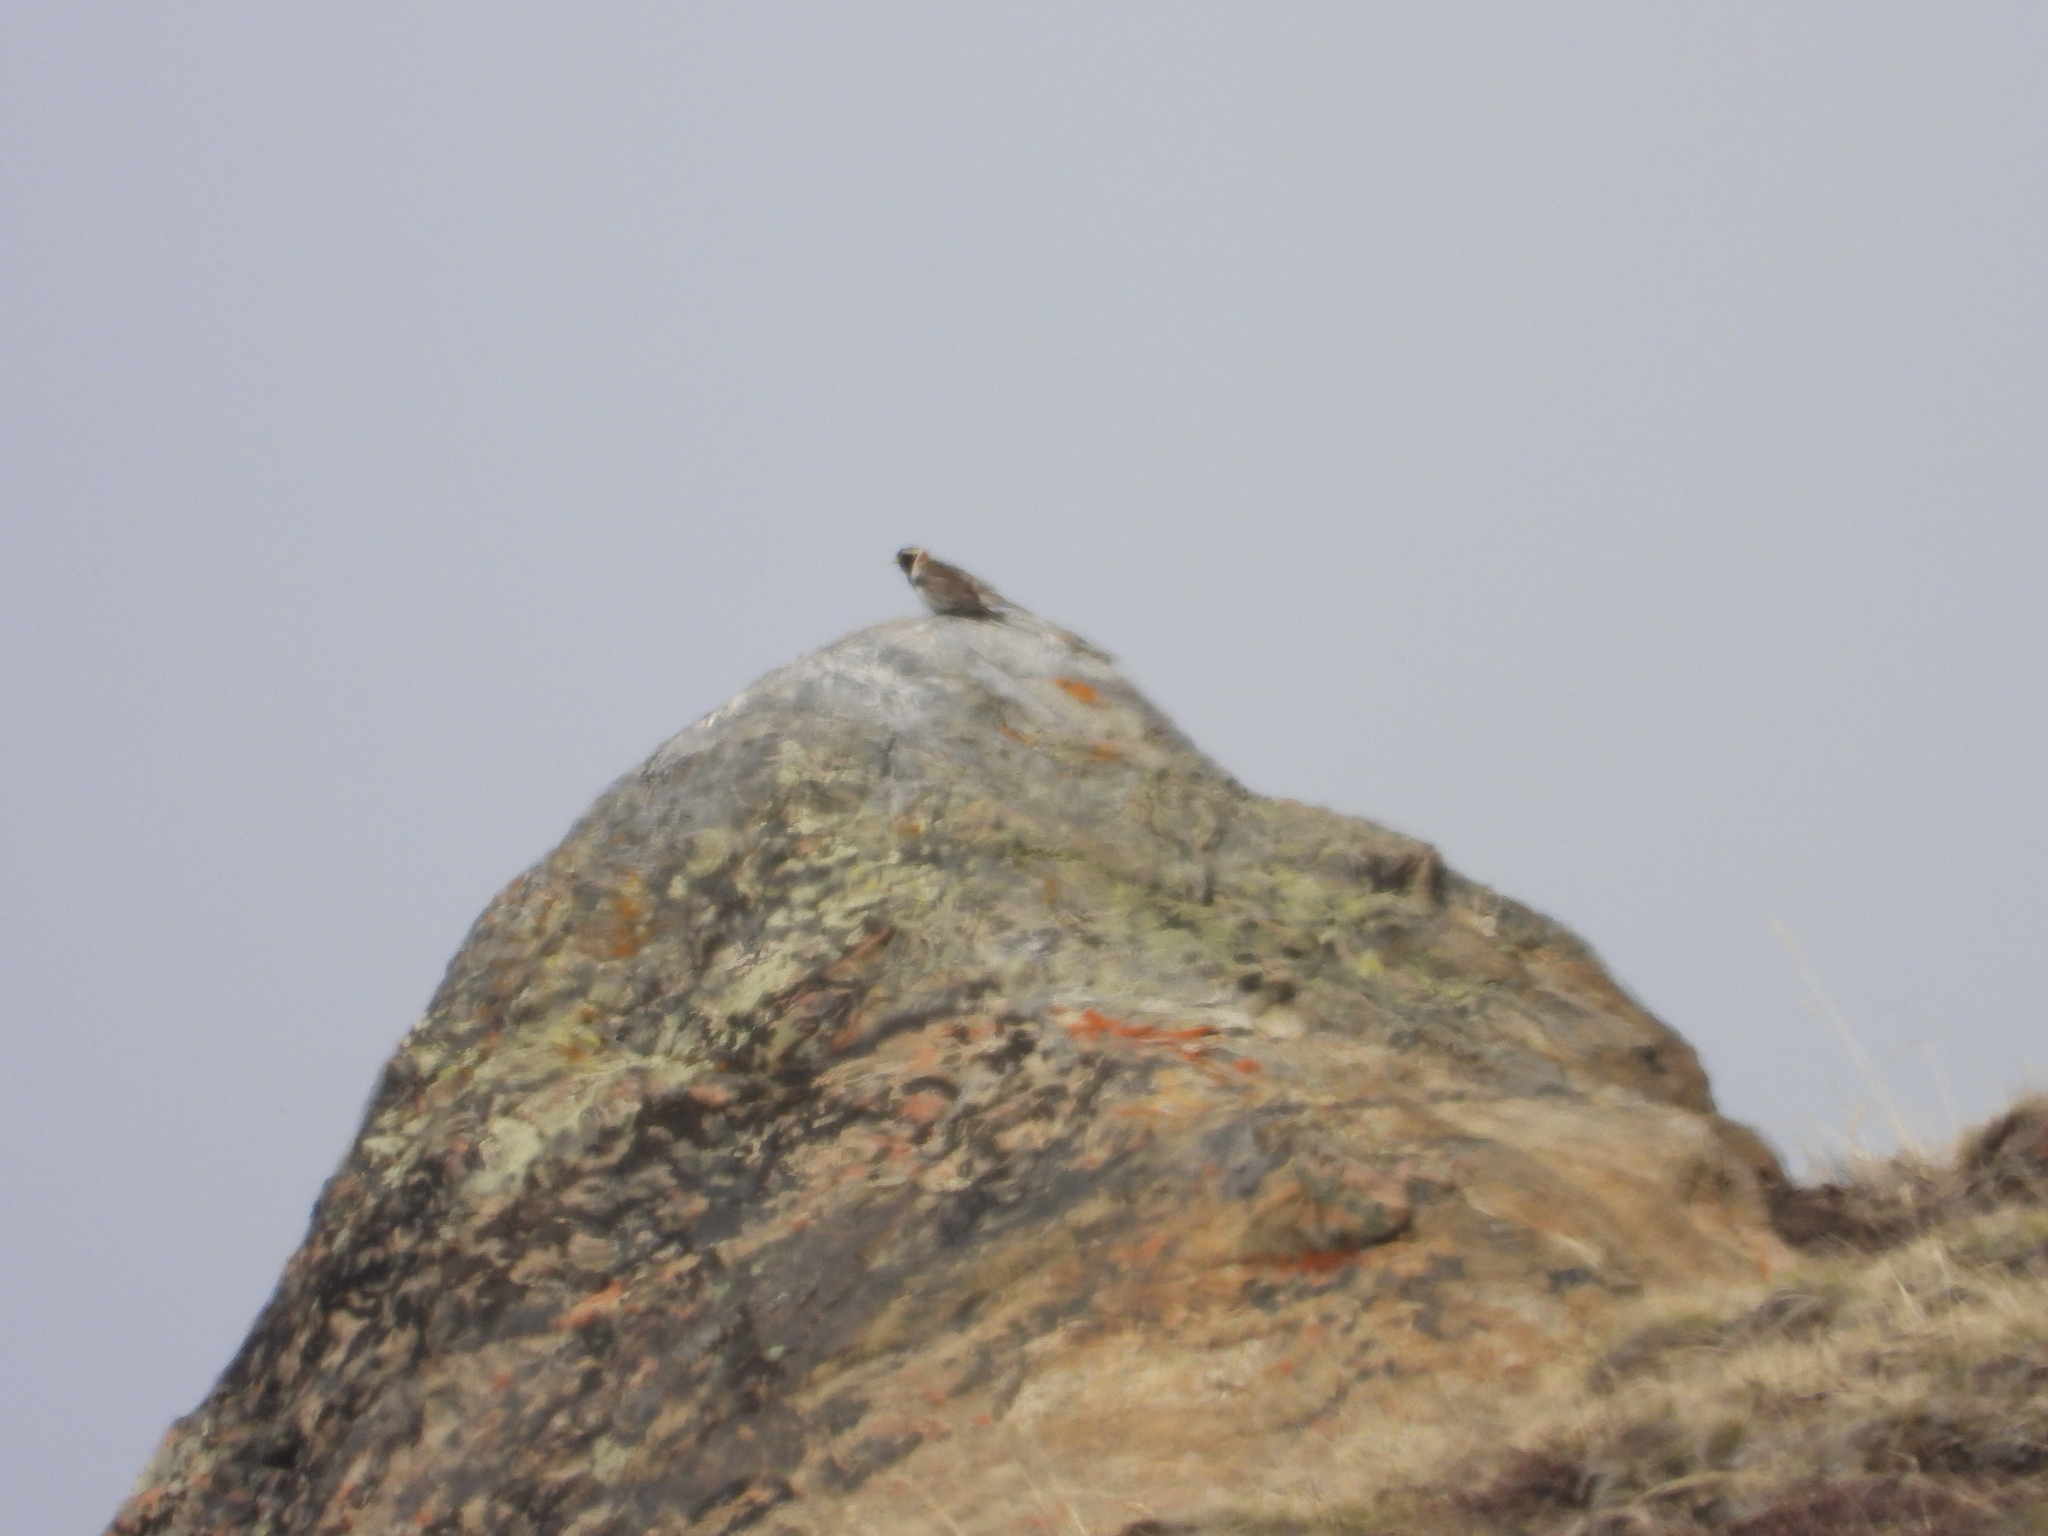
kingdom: Animalia
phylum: Chordata
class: Aves
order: Passeriformes
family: Calcariidae
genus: Calcarius
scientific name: Calcarius lapponicus
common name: Lapland longspur
